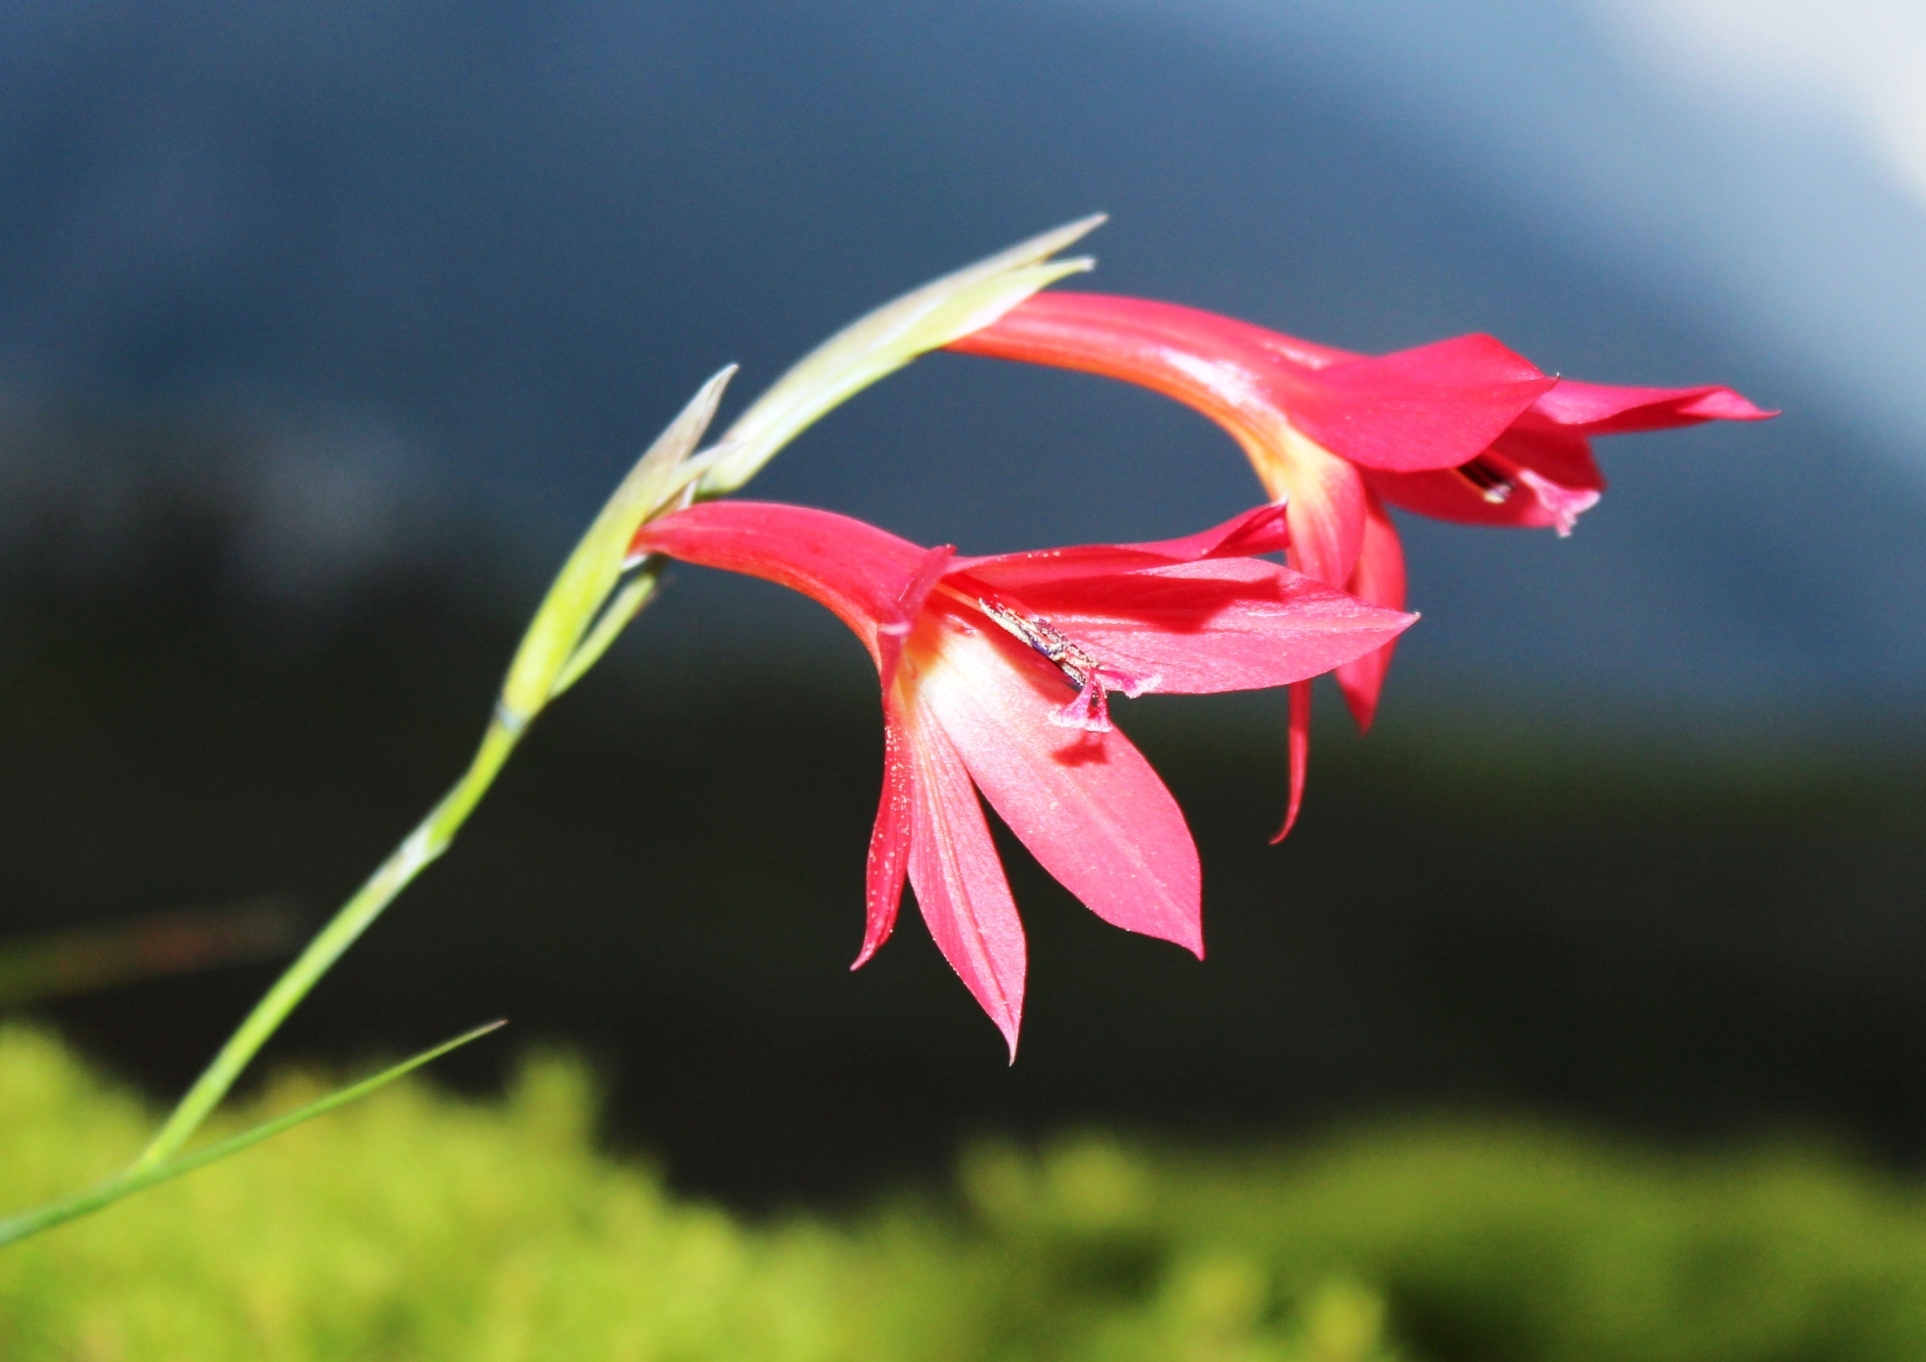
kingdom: Plantae
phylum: Tracheophyta
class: Liliopsida
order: Asparagales
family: Iridaceae
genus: Gladiolus
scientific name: Gladiolus priorii
